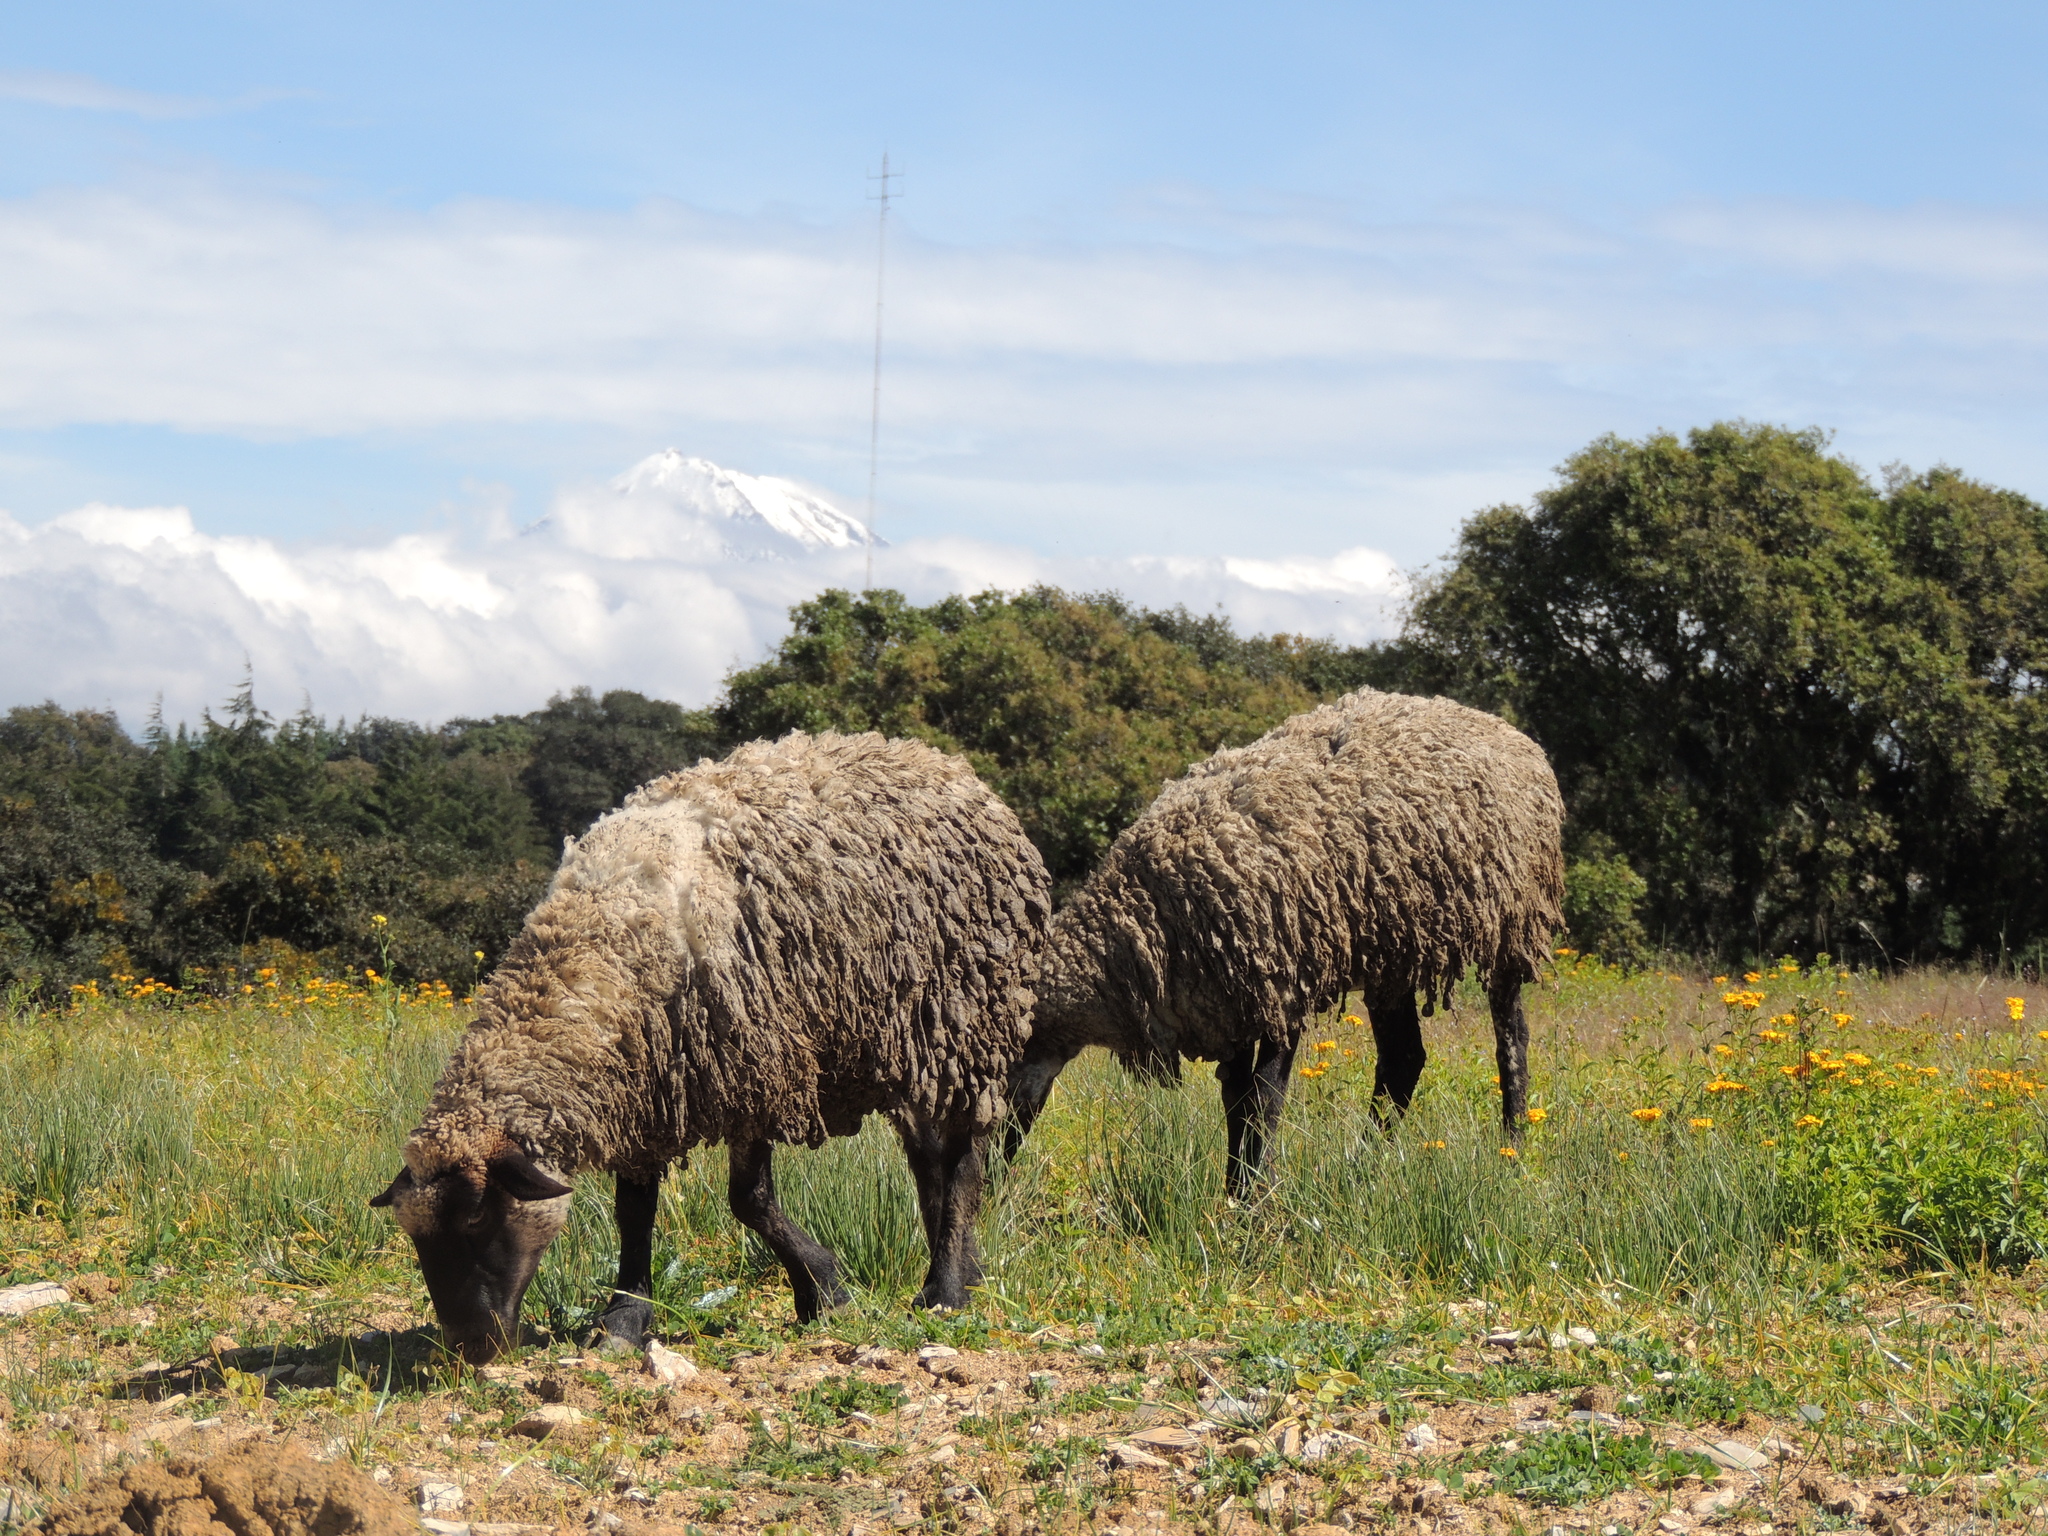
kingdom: Animalia
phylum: Chordata
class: Mammalia
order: Artiodactyla
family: Bovidae
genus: Ovis
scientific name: Ovis aries
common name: Domestic sheep
